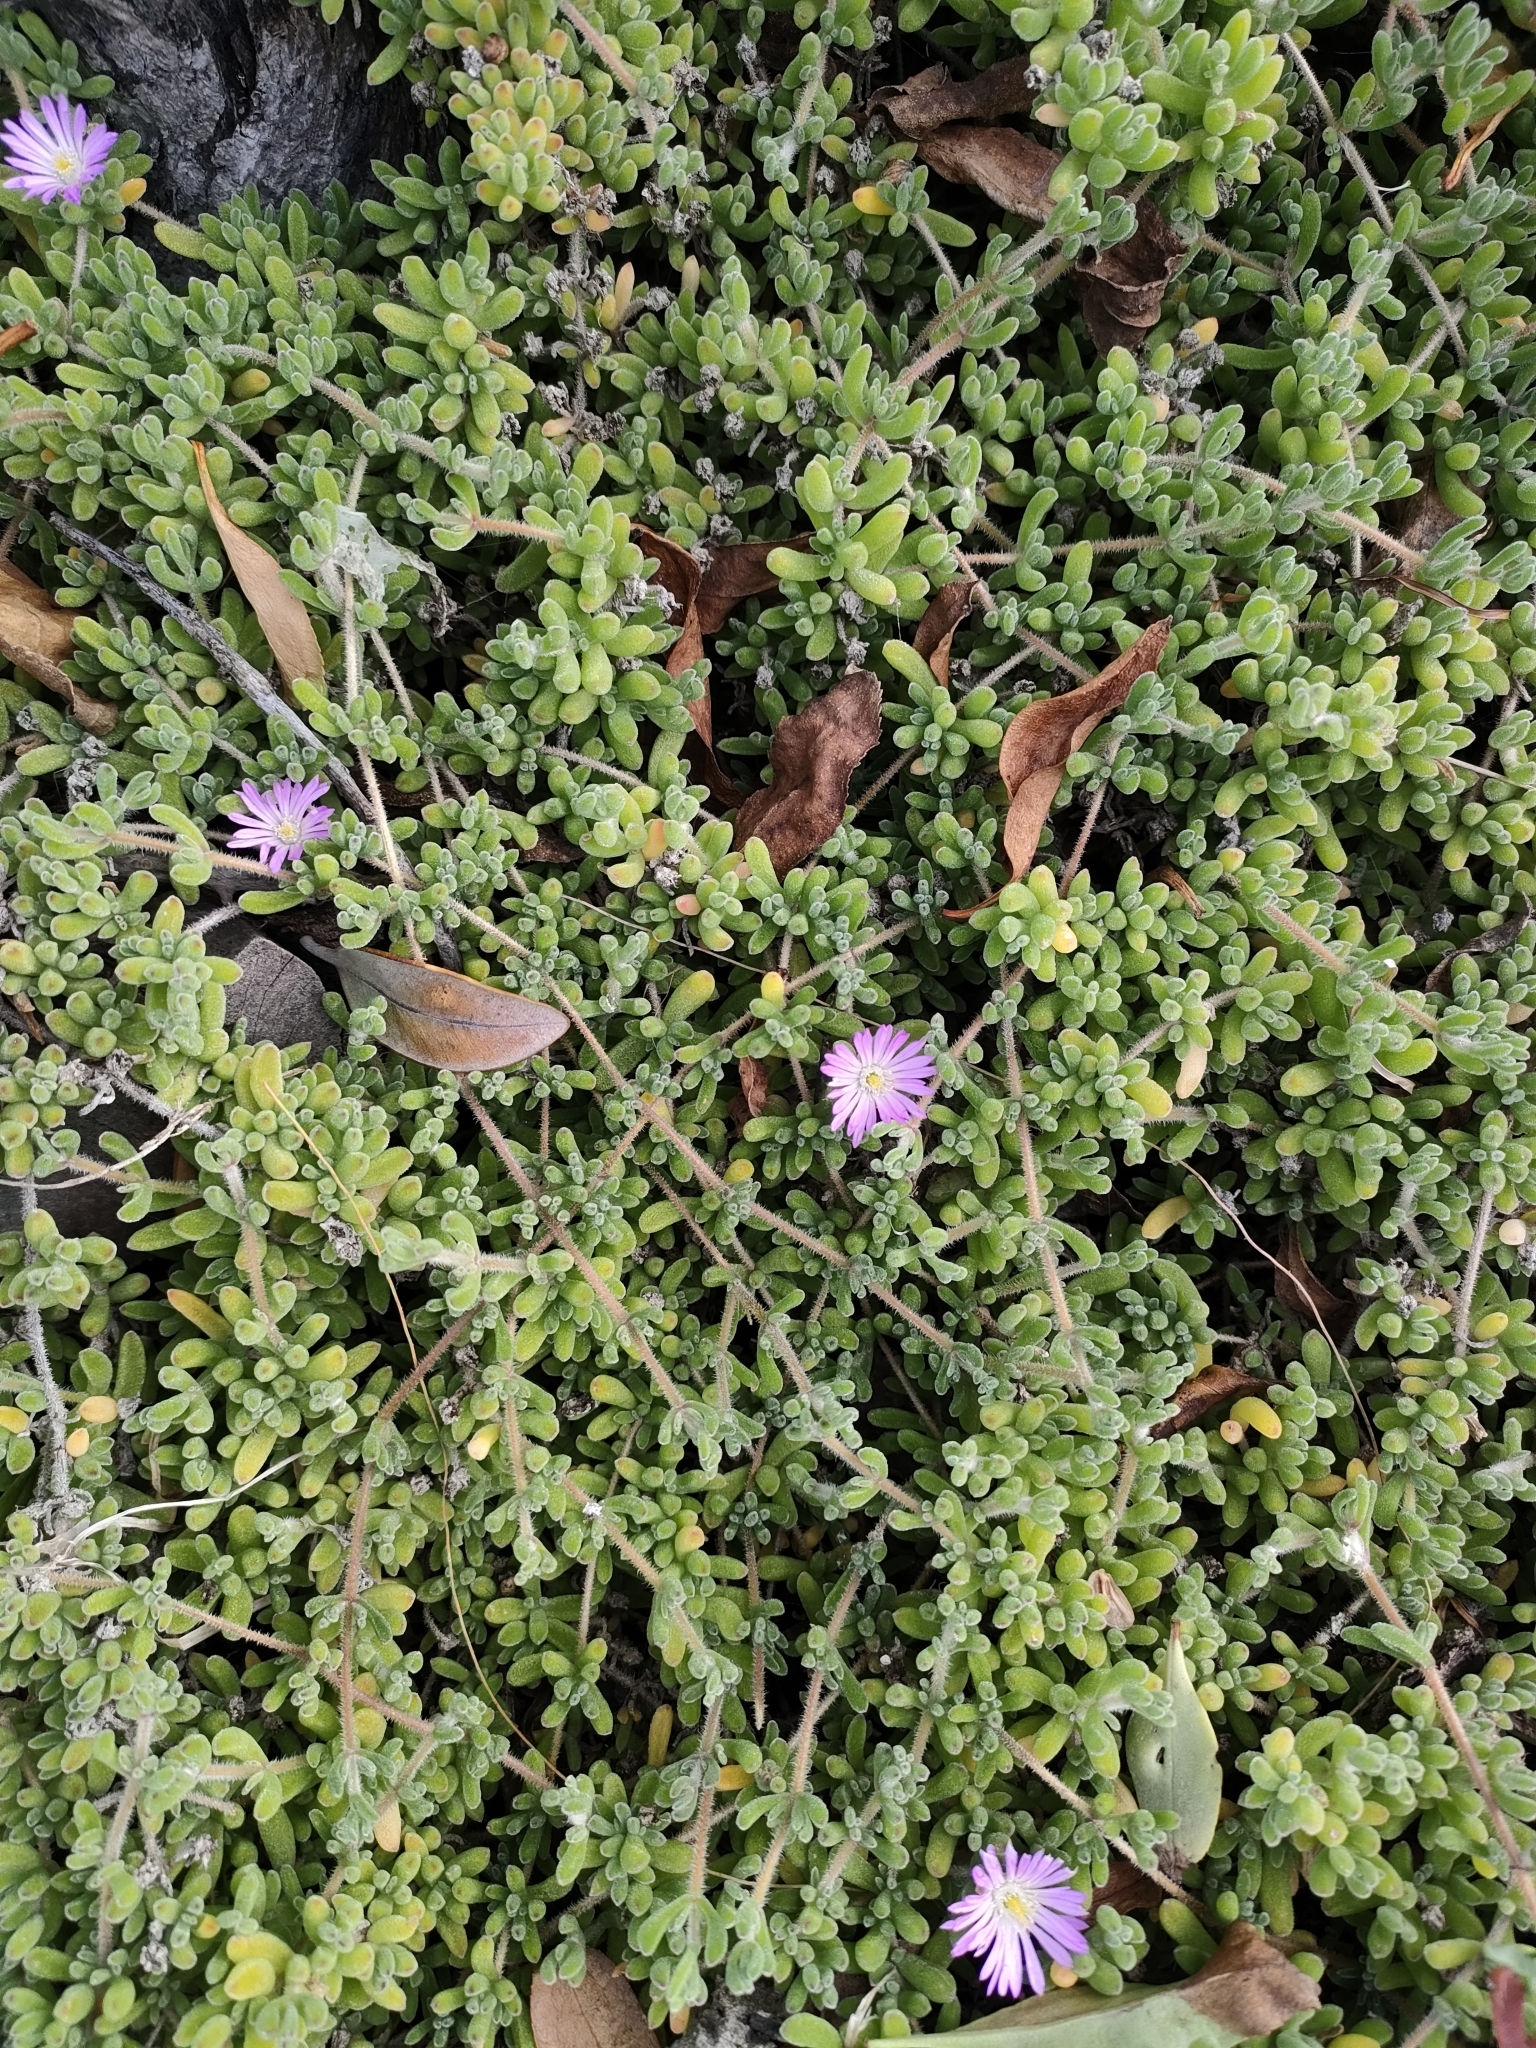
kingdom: Plantae
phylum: Tracheophyta
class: Magnoliopsida
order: Caryophyllales
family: Aizoaceae
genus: Drosanthemum
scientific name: Drosanthemum floribundum
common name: Pale dewplant
